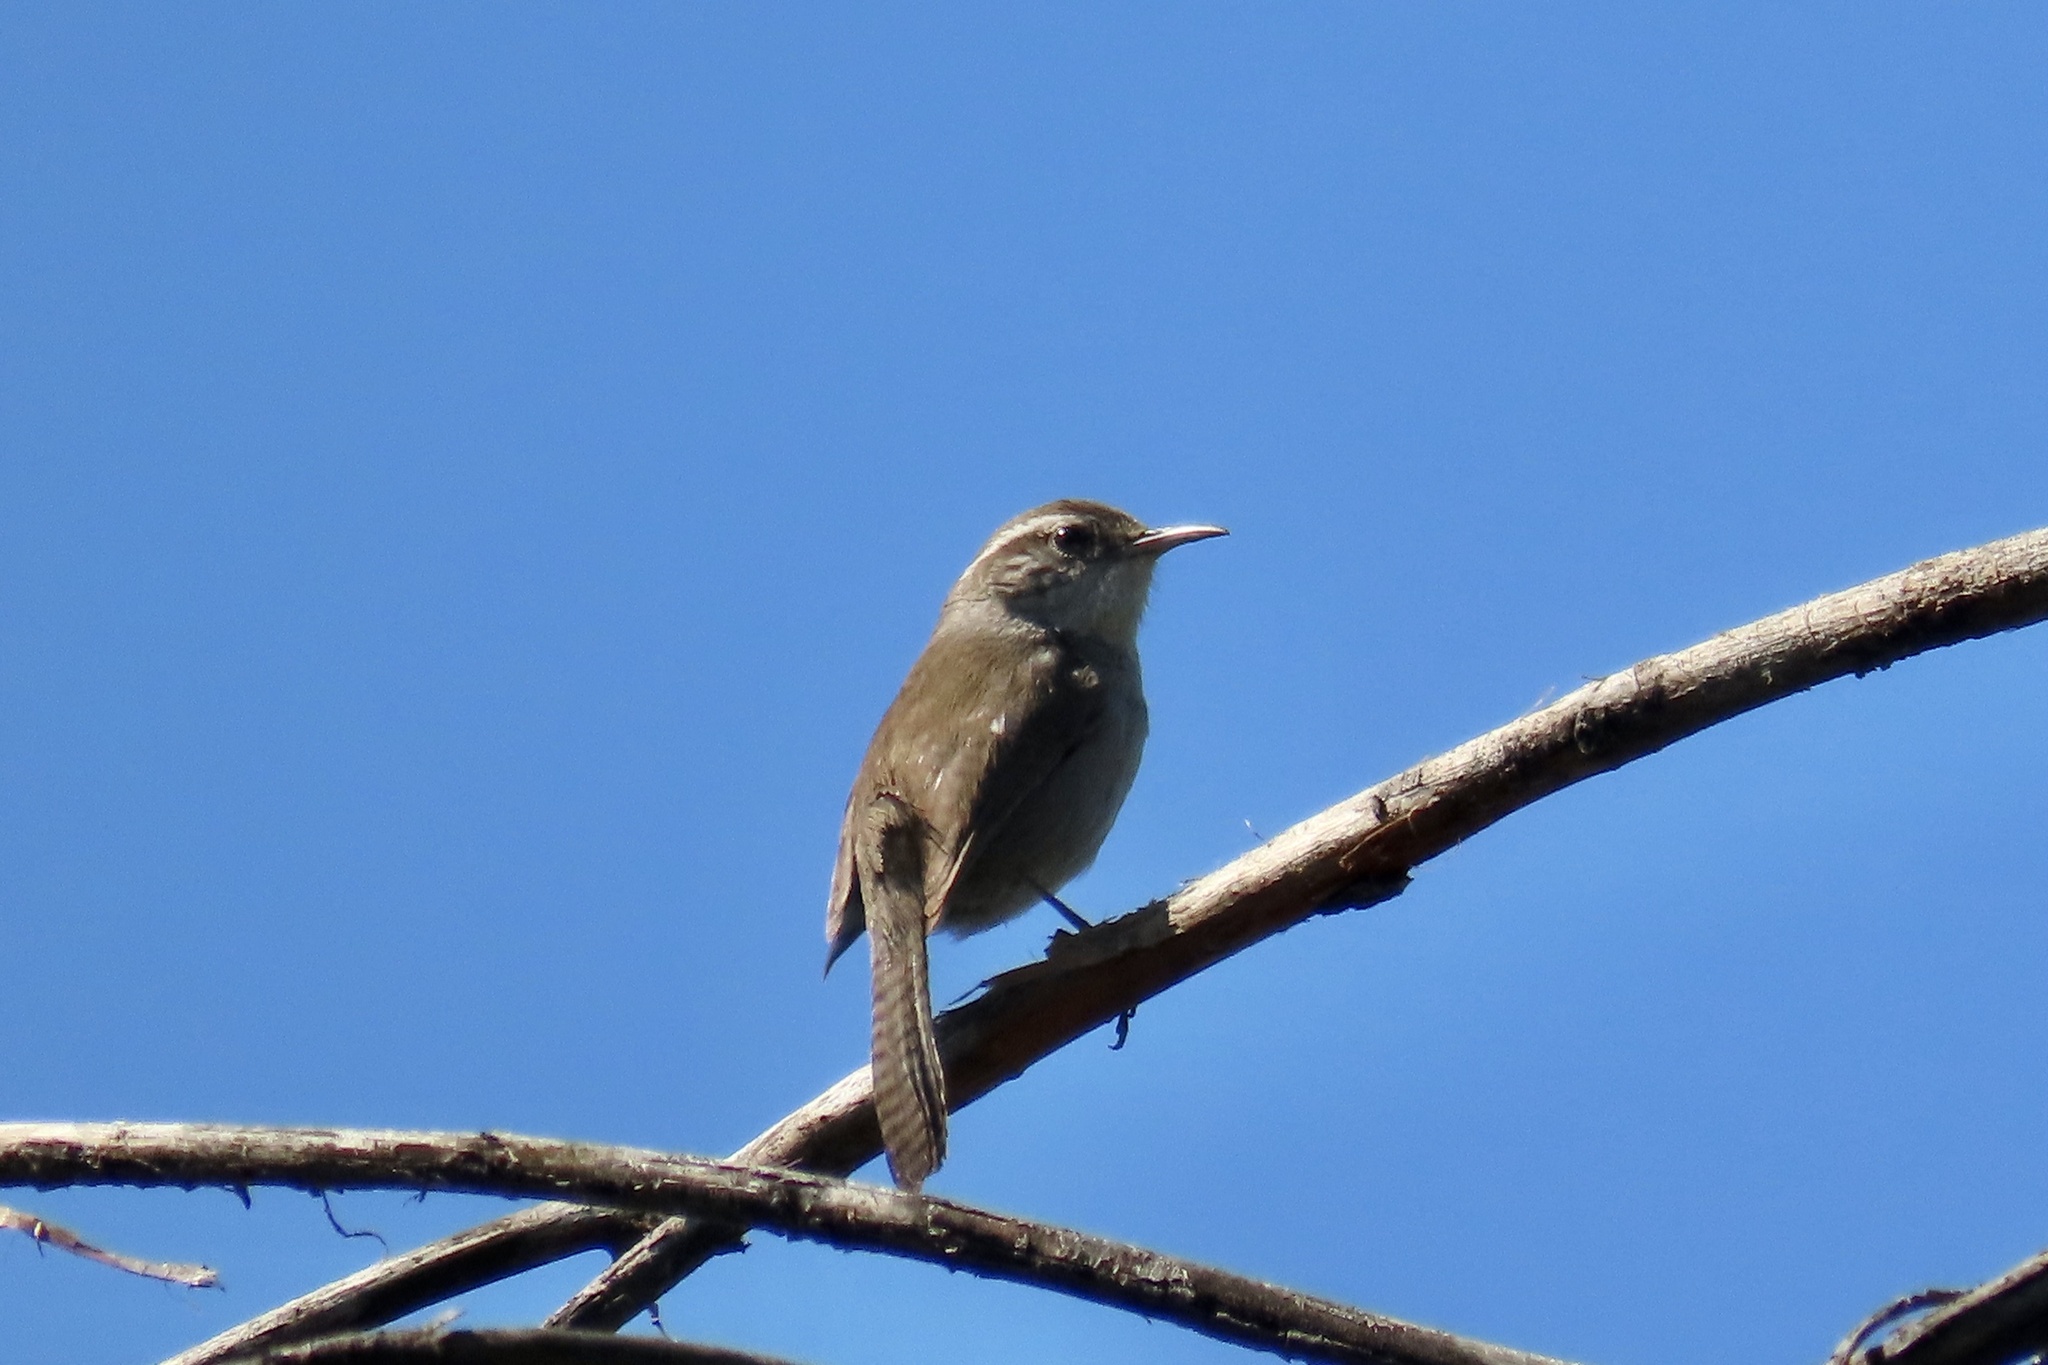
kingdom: Animalia
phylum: Chordata
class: Aves
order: Passeriformes
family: Troglodytidae
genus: Thryomanes
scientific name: Thryomanes bewickii
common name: Bewick's wren
